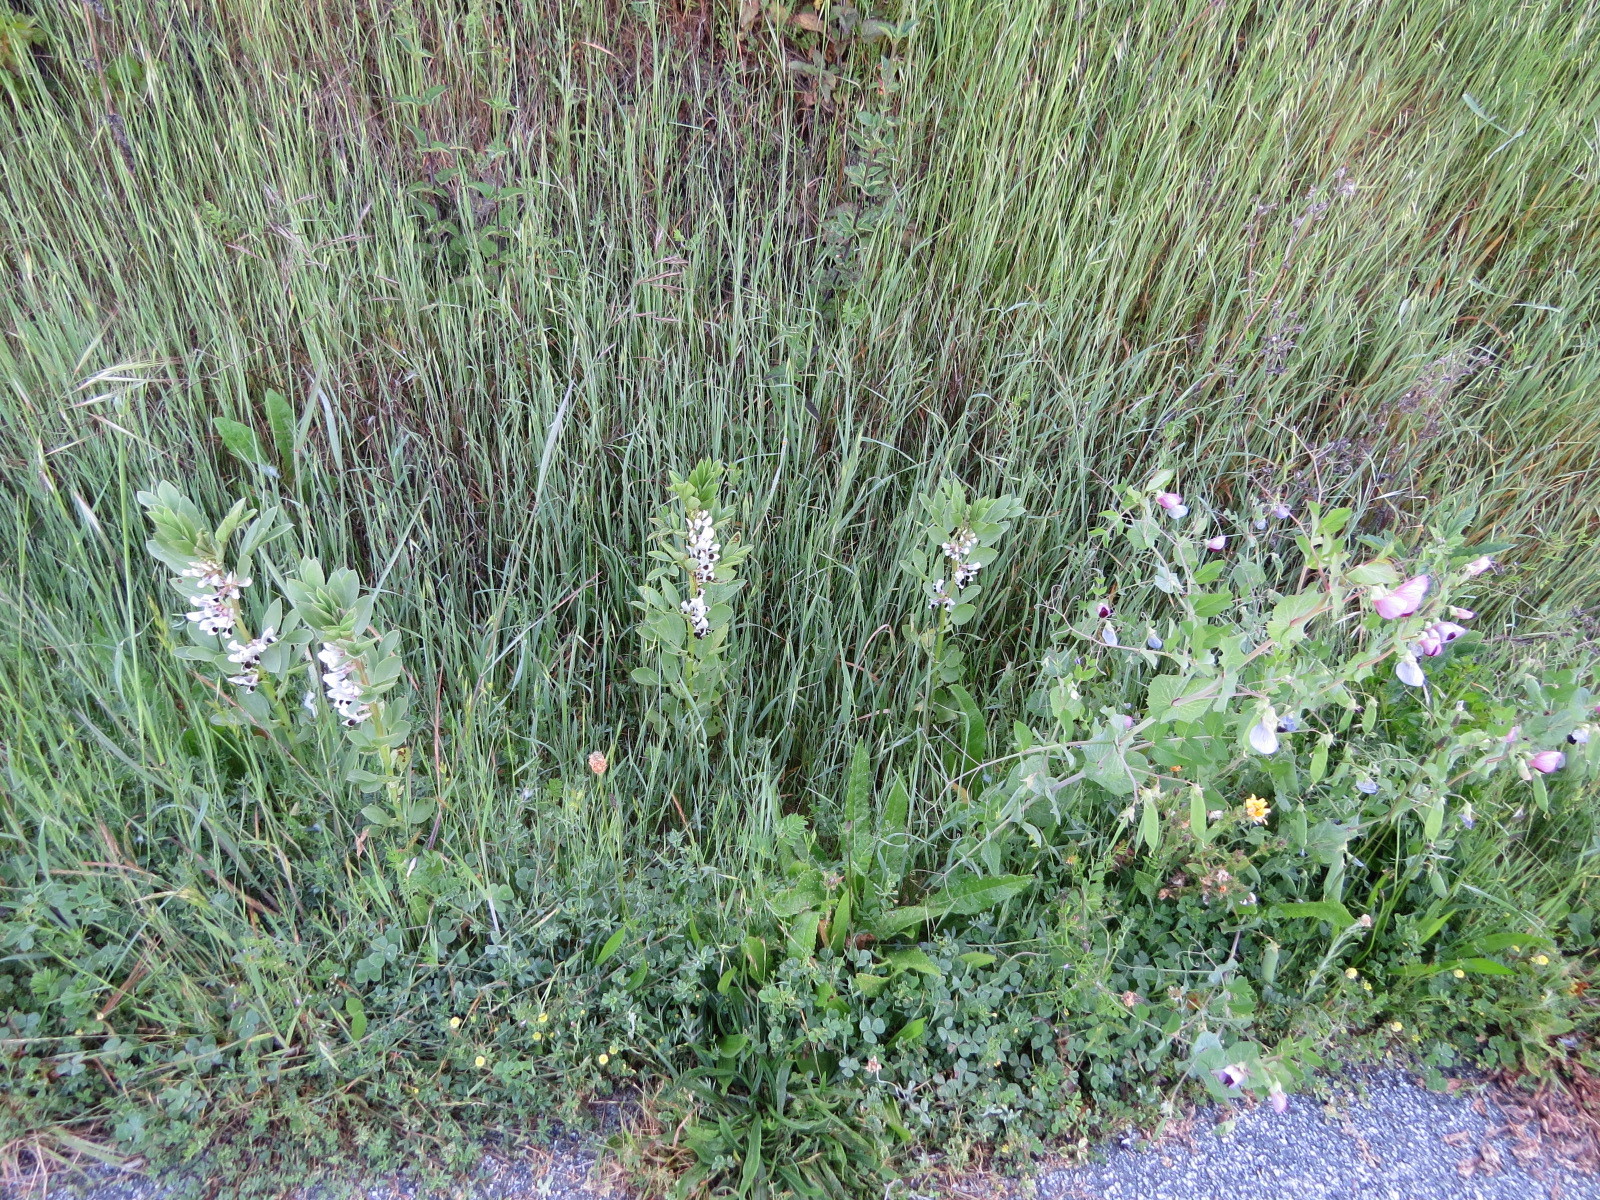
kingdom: Plantae
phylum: Tracheophyta
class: Magnoliopsida
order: Fabales
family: Fabaceae
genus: Vicia
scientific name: Vicia faba
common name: Broad bean
